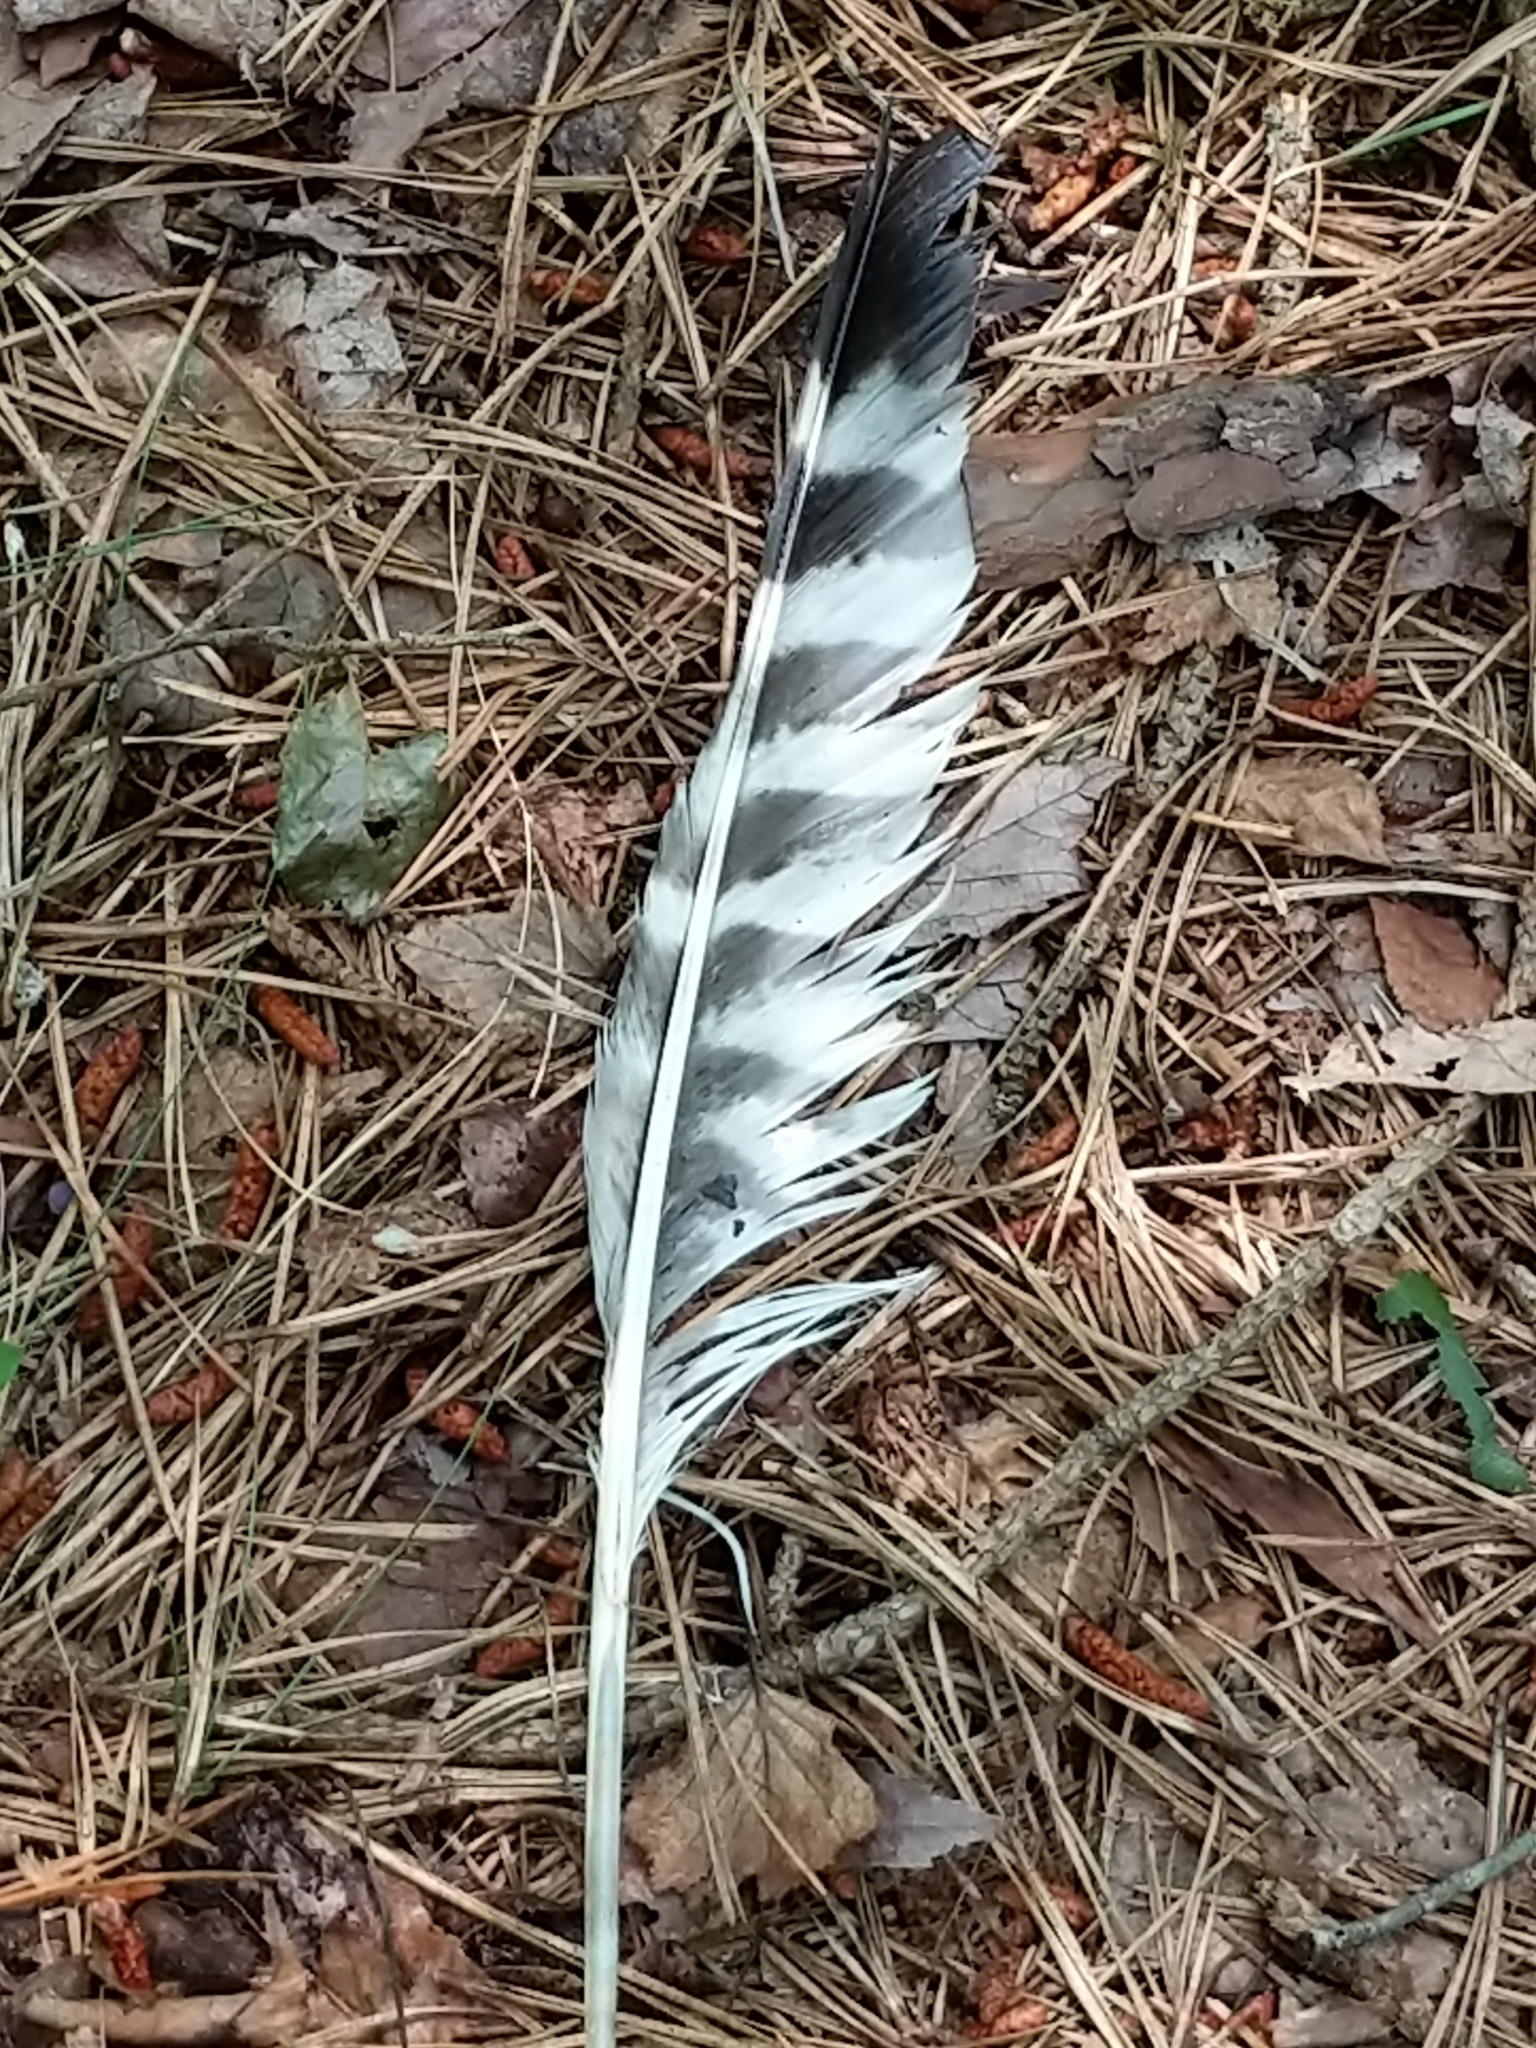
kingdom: Animalia
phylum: Chordata
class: Aves
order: Accipitriformes
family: Accipitridae
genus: Buteo
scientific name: Buteo lineatus
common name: Red-shouldered hawk
